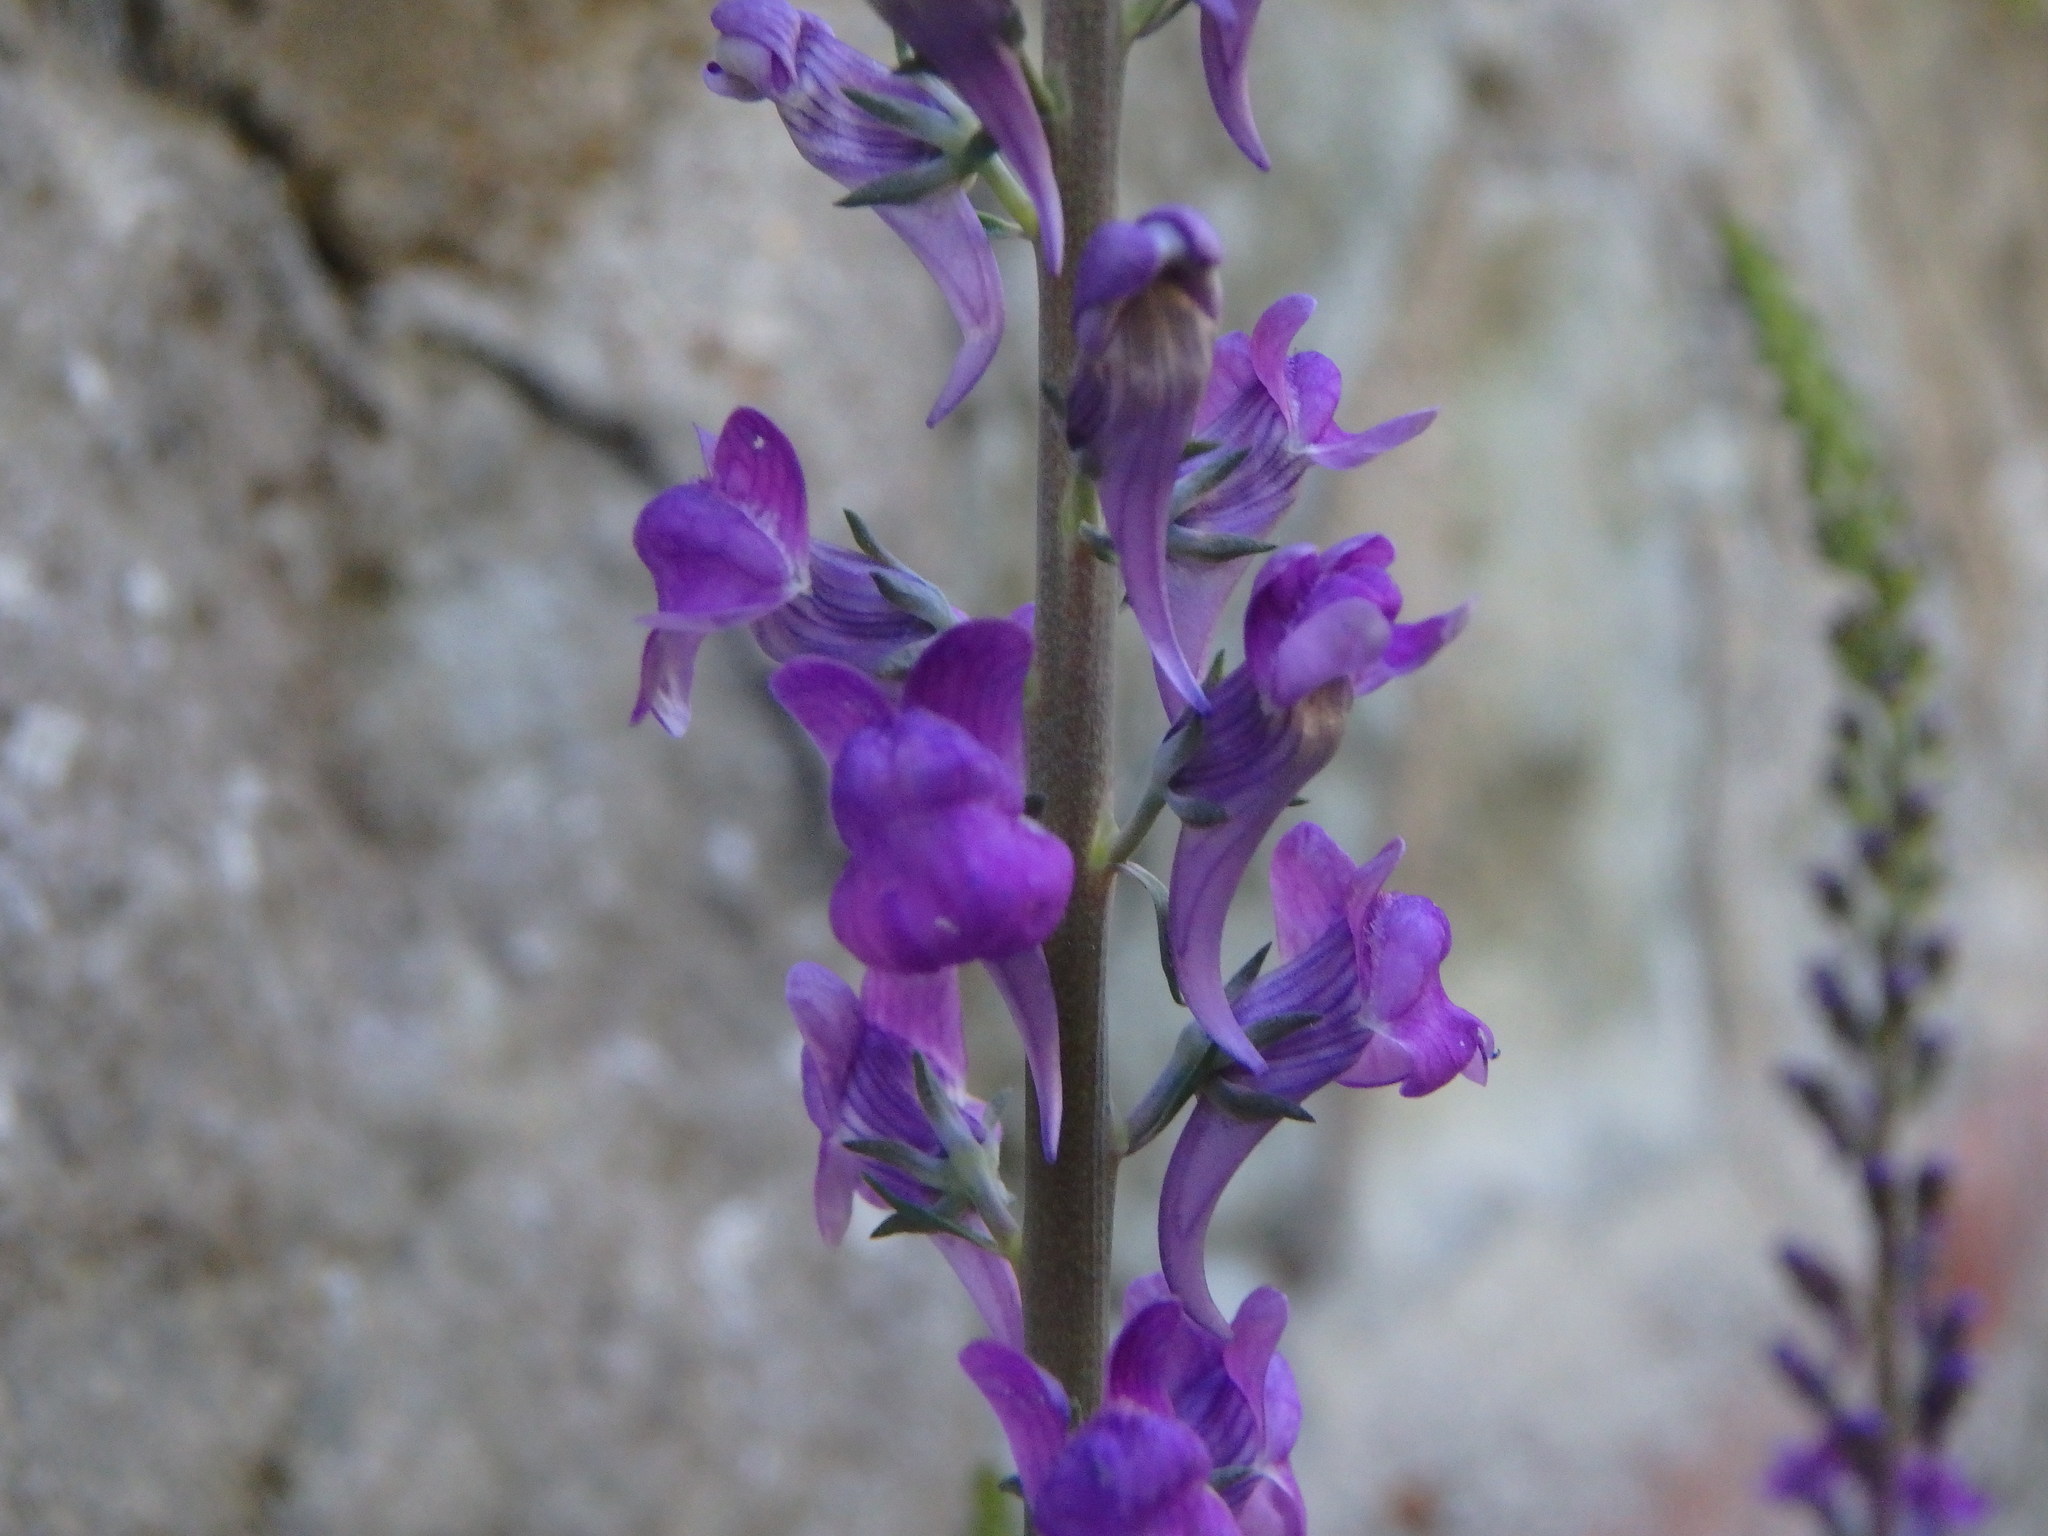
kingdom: Plantae
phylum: Tracheophyta
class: Magnoliopsida
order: Lamiales
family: Plantaginaceae
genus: Linaria
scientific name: Linaria purpurea
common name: Purple toadflax
